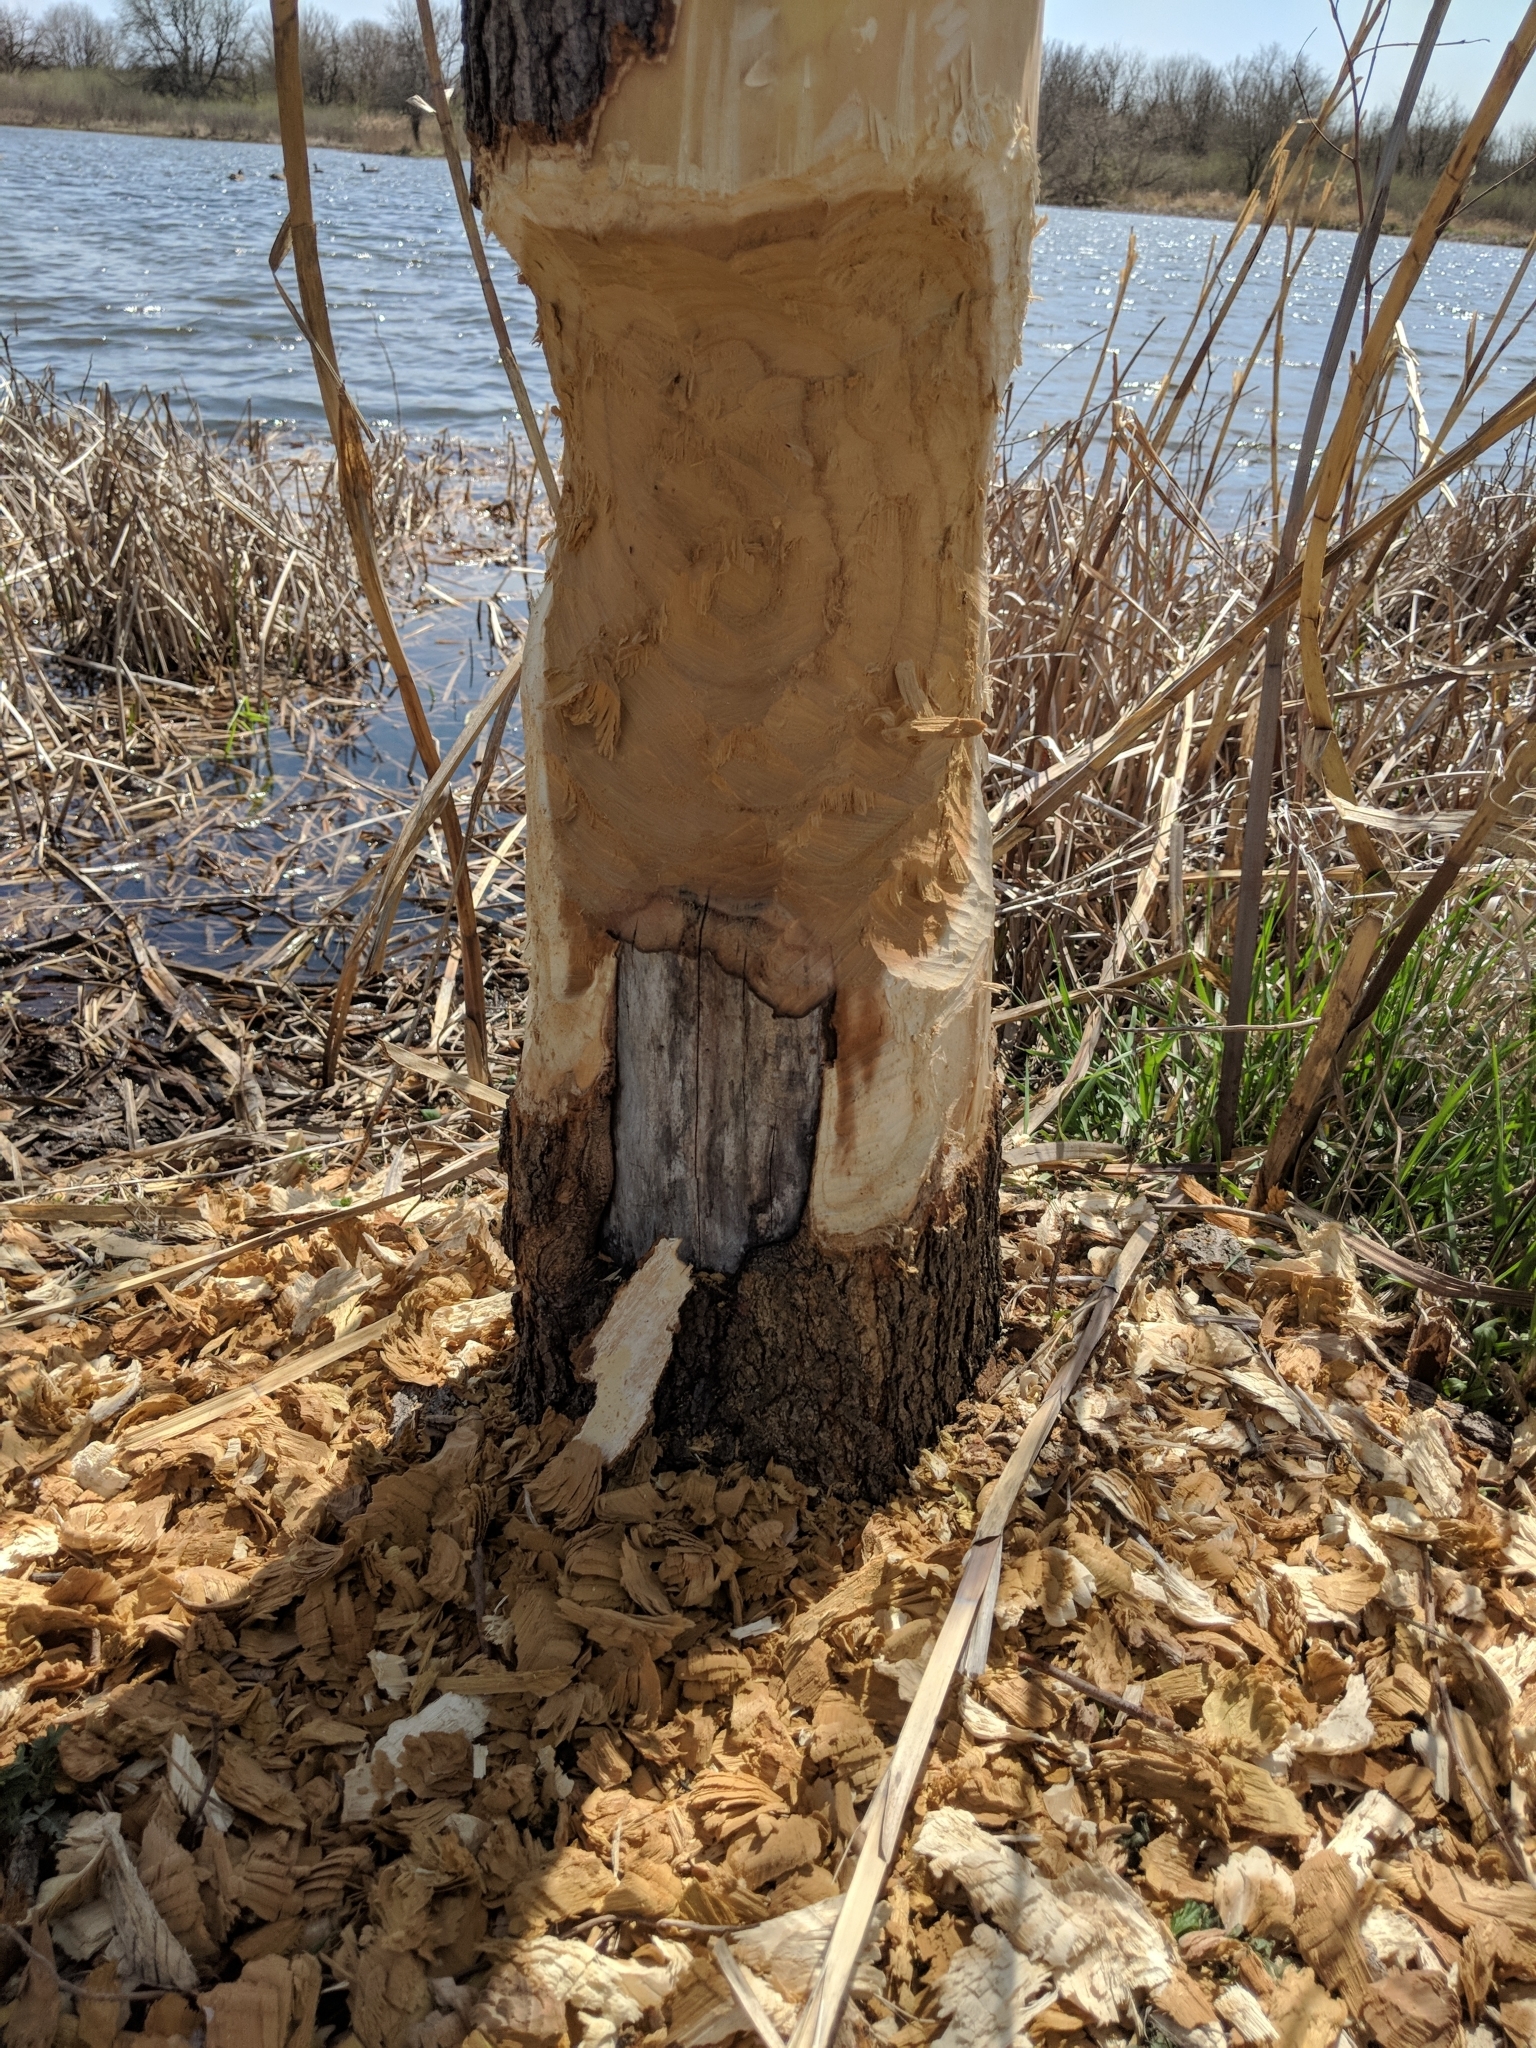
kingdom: Animalia
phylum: Chordata
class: Mammalia
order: Rodentia
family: Castoridae
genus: Castor
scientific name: Castor canadensis
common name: American beaver
